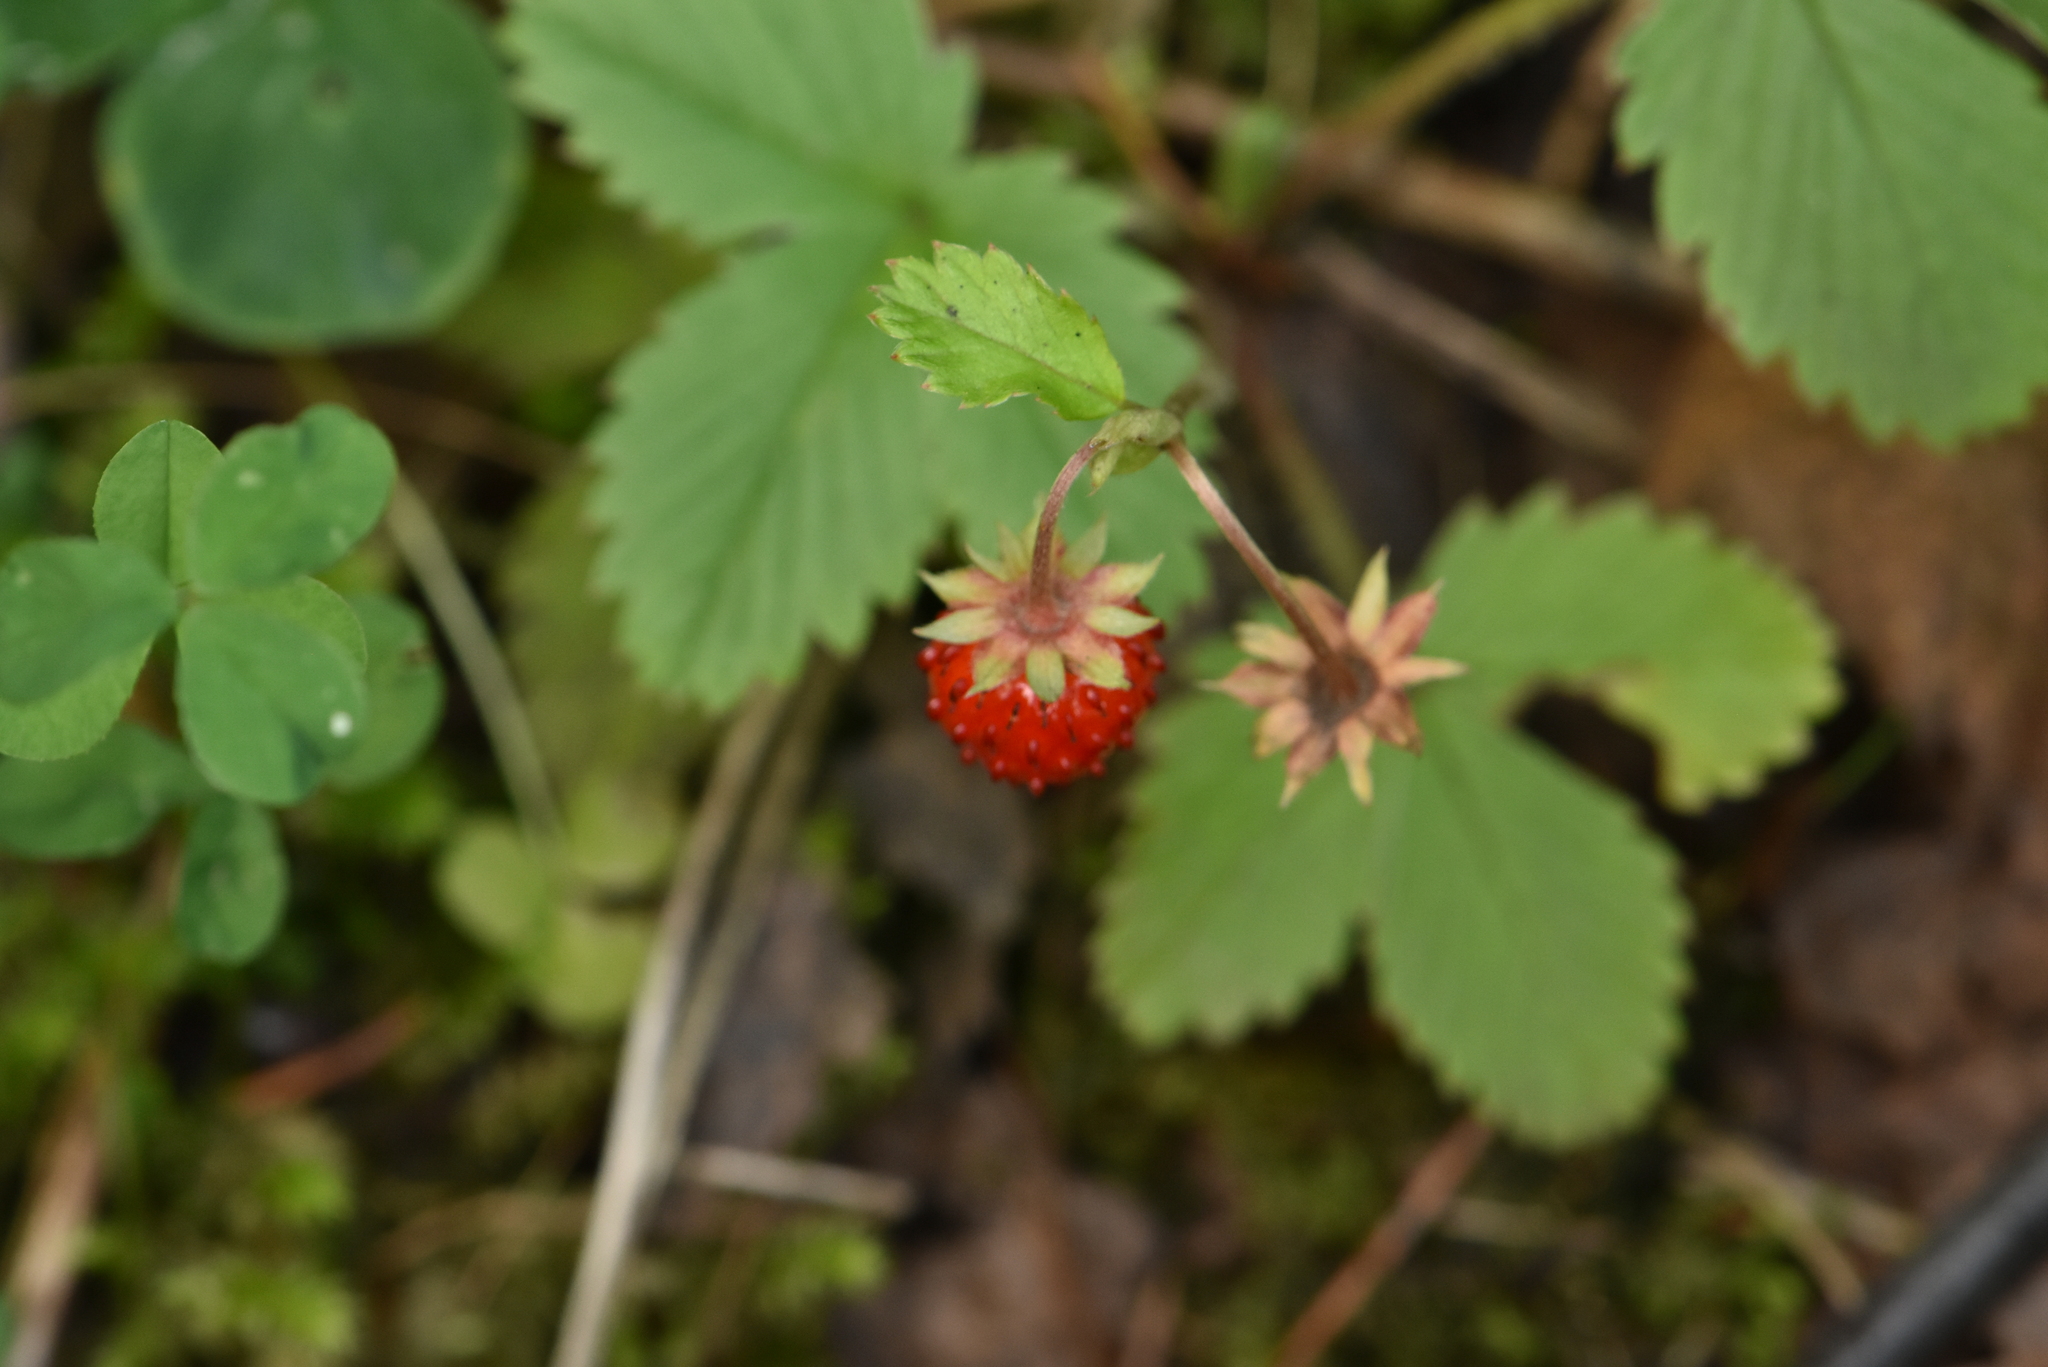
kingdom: Plantae
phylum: Tracheophyta
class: Magnoliopsida
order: Rosales
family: Rosaceae
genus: Fragaria
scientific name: Fragaria vesca
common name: Wild strawberry
